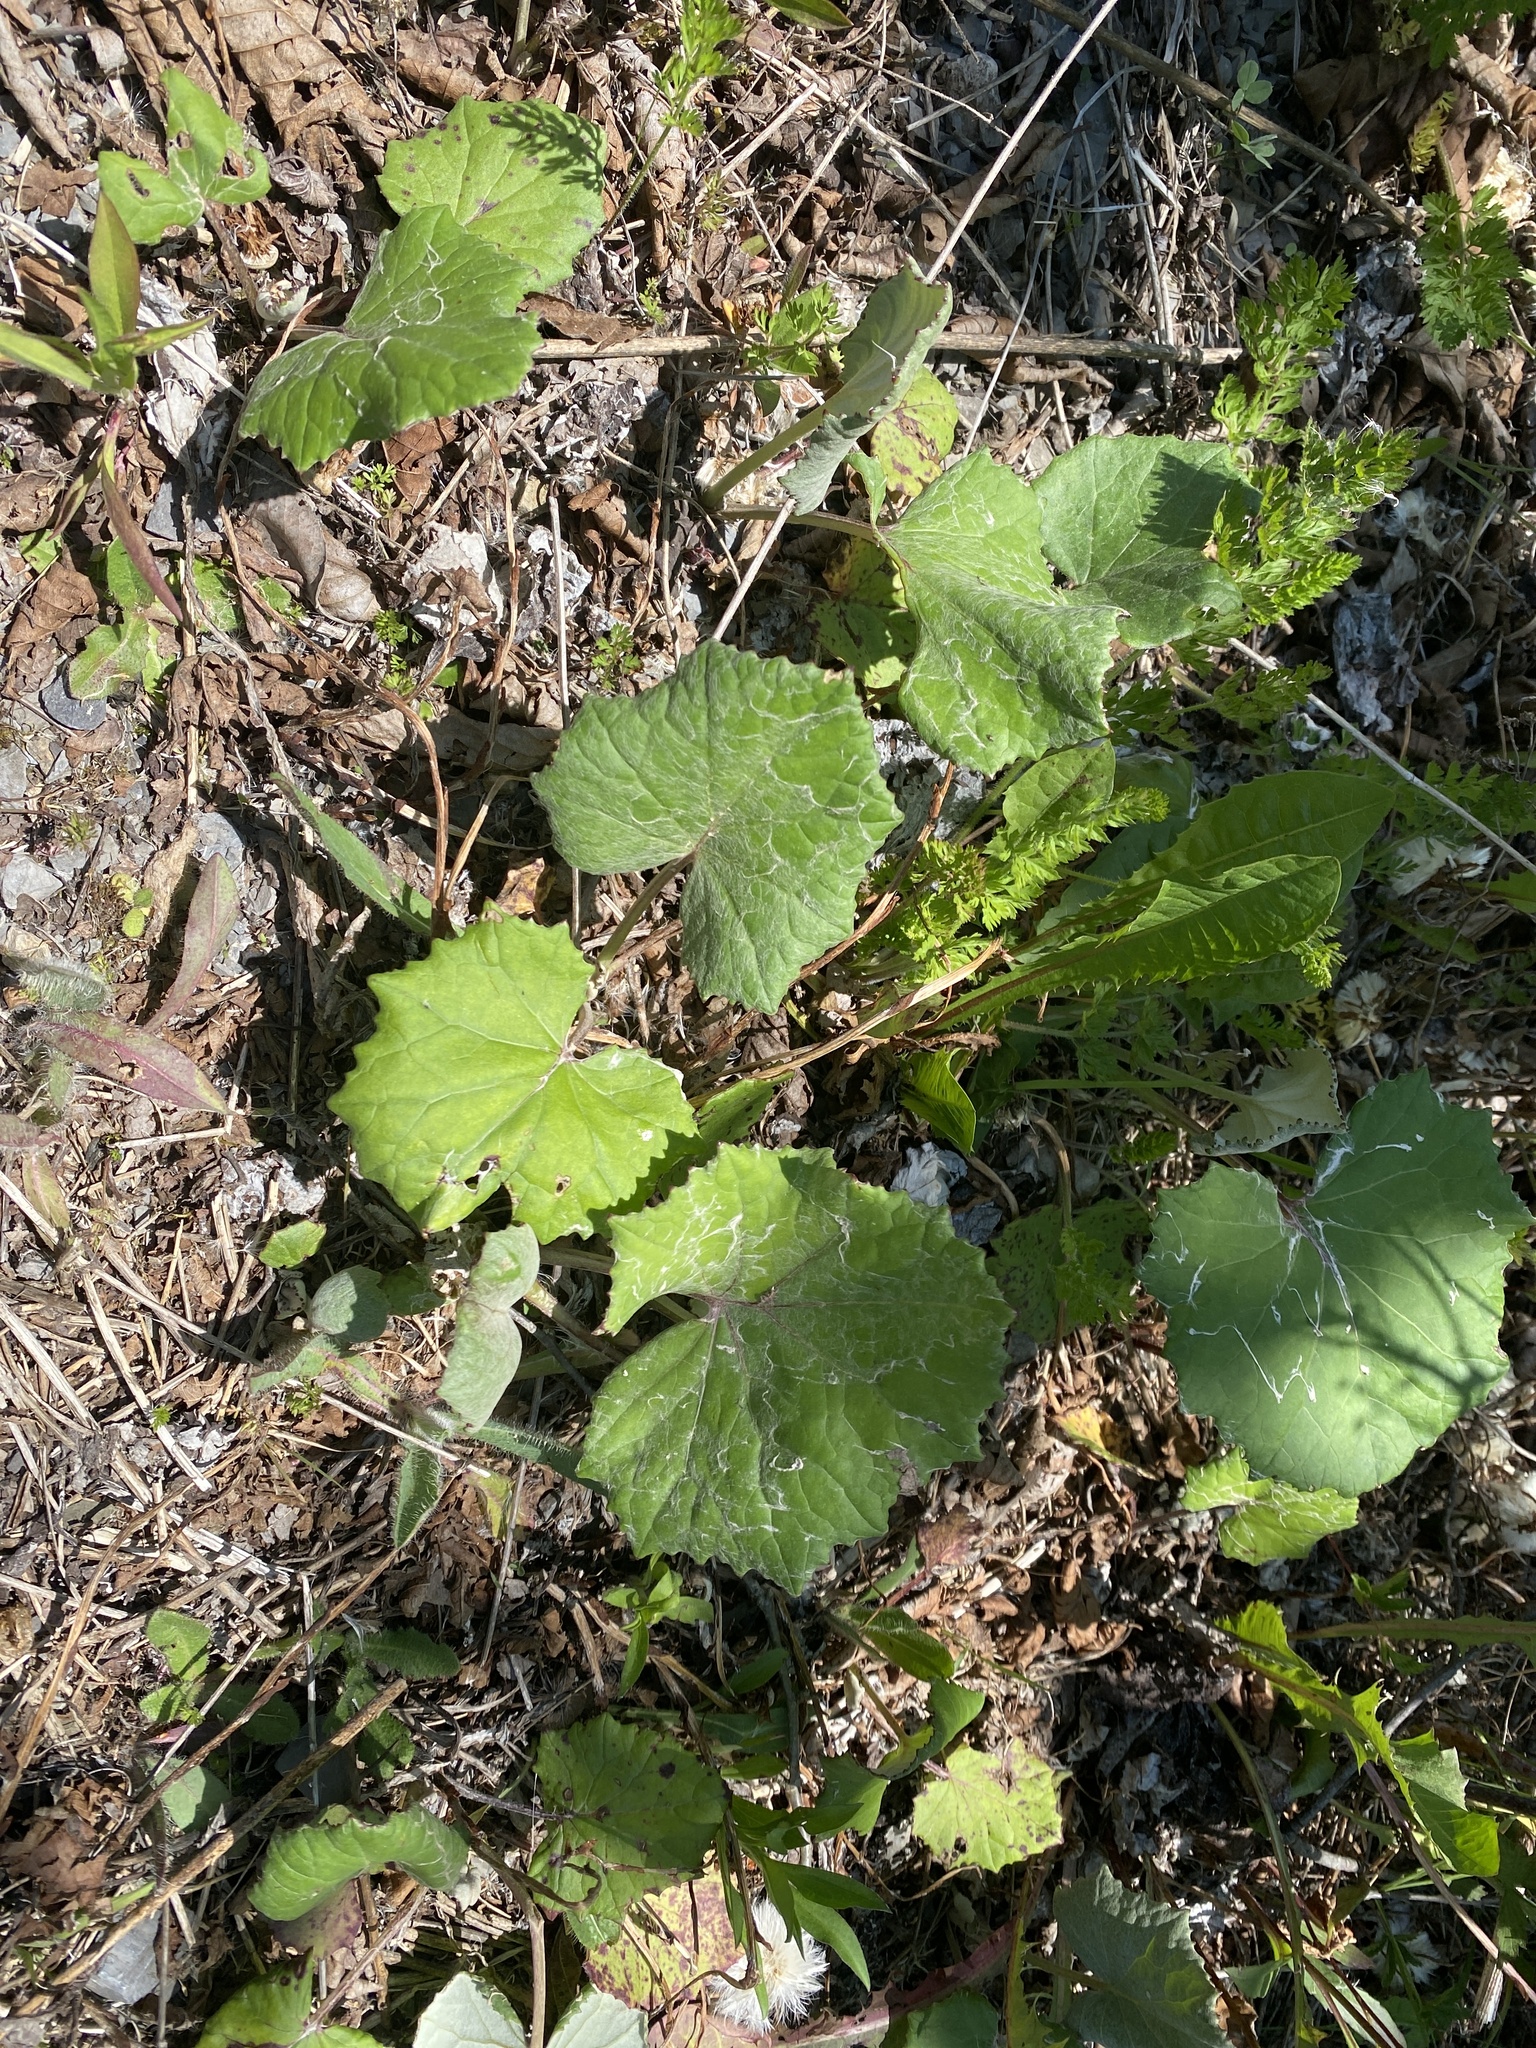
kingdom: Plantae
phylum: Tracheophyta
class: Magnoliopsida
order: Asterales
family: Asteraceae
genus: Tussilago
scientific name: Tussilago farfara
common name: Coltsfoot
